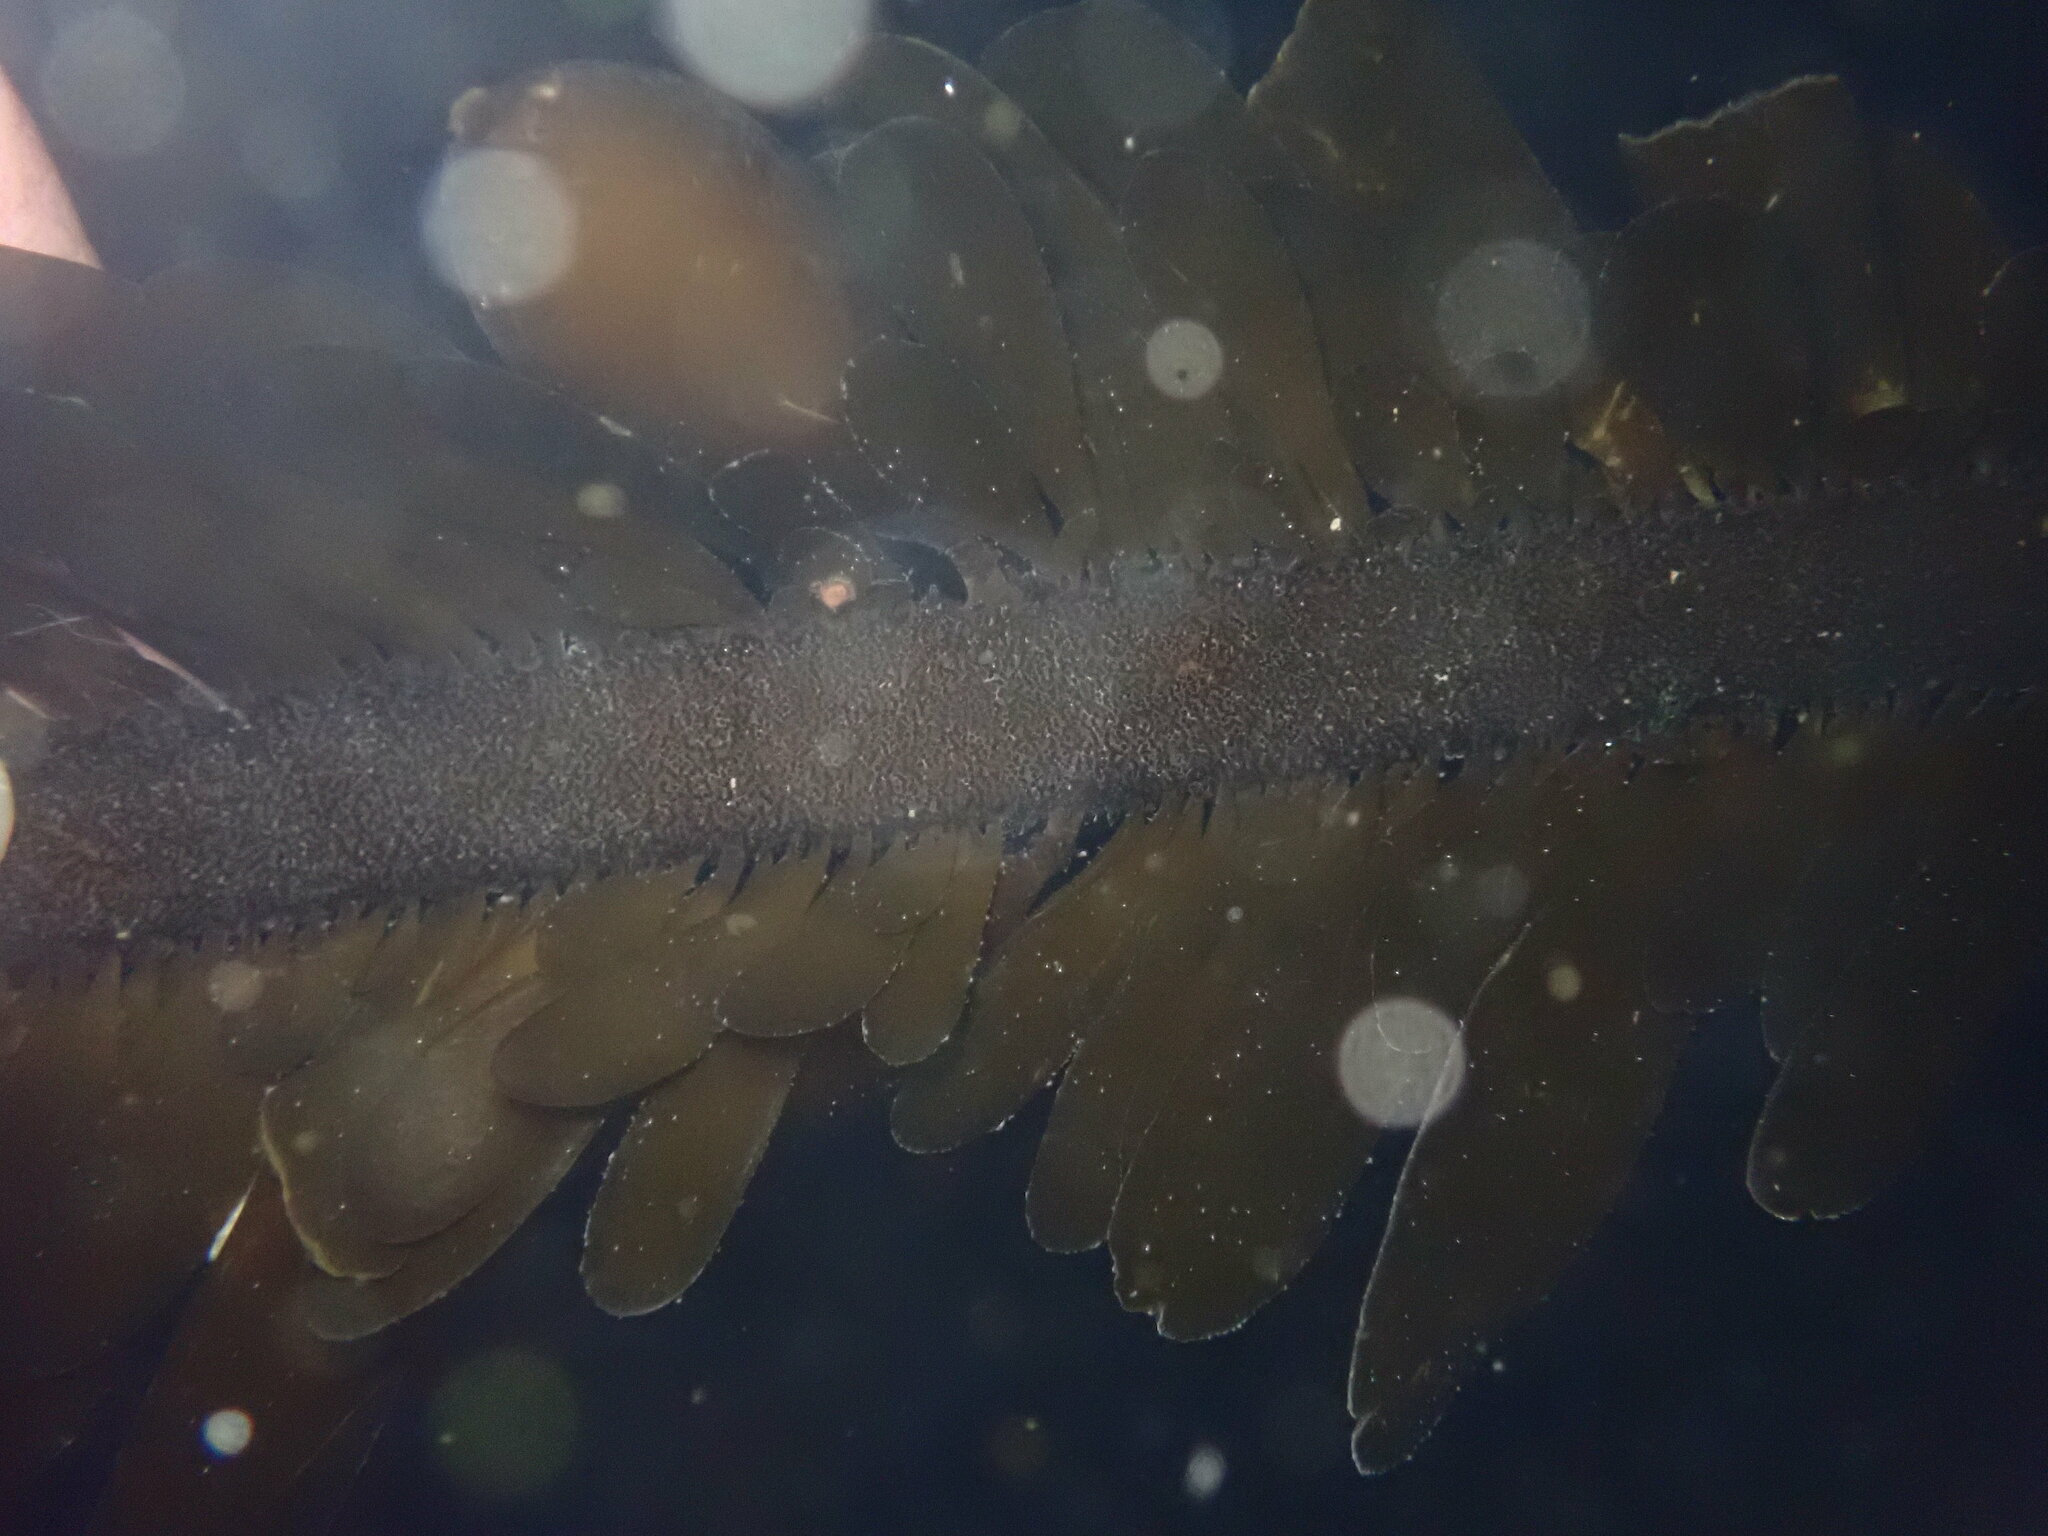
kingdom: Chromista
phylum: Ochrophyta
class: Phaeophyceae
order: Laminariales
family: Lessoniaceae
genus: Egregia
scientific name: Egregia menziesii
